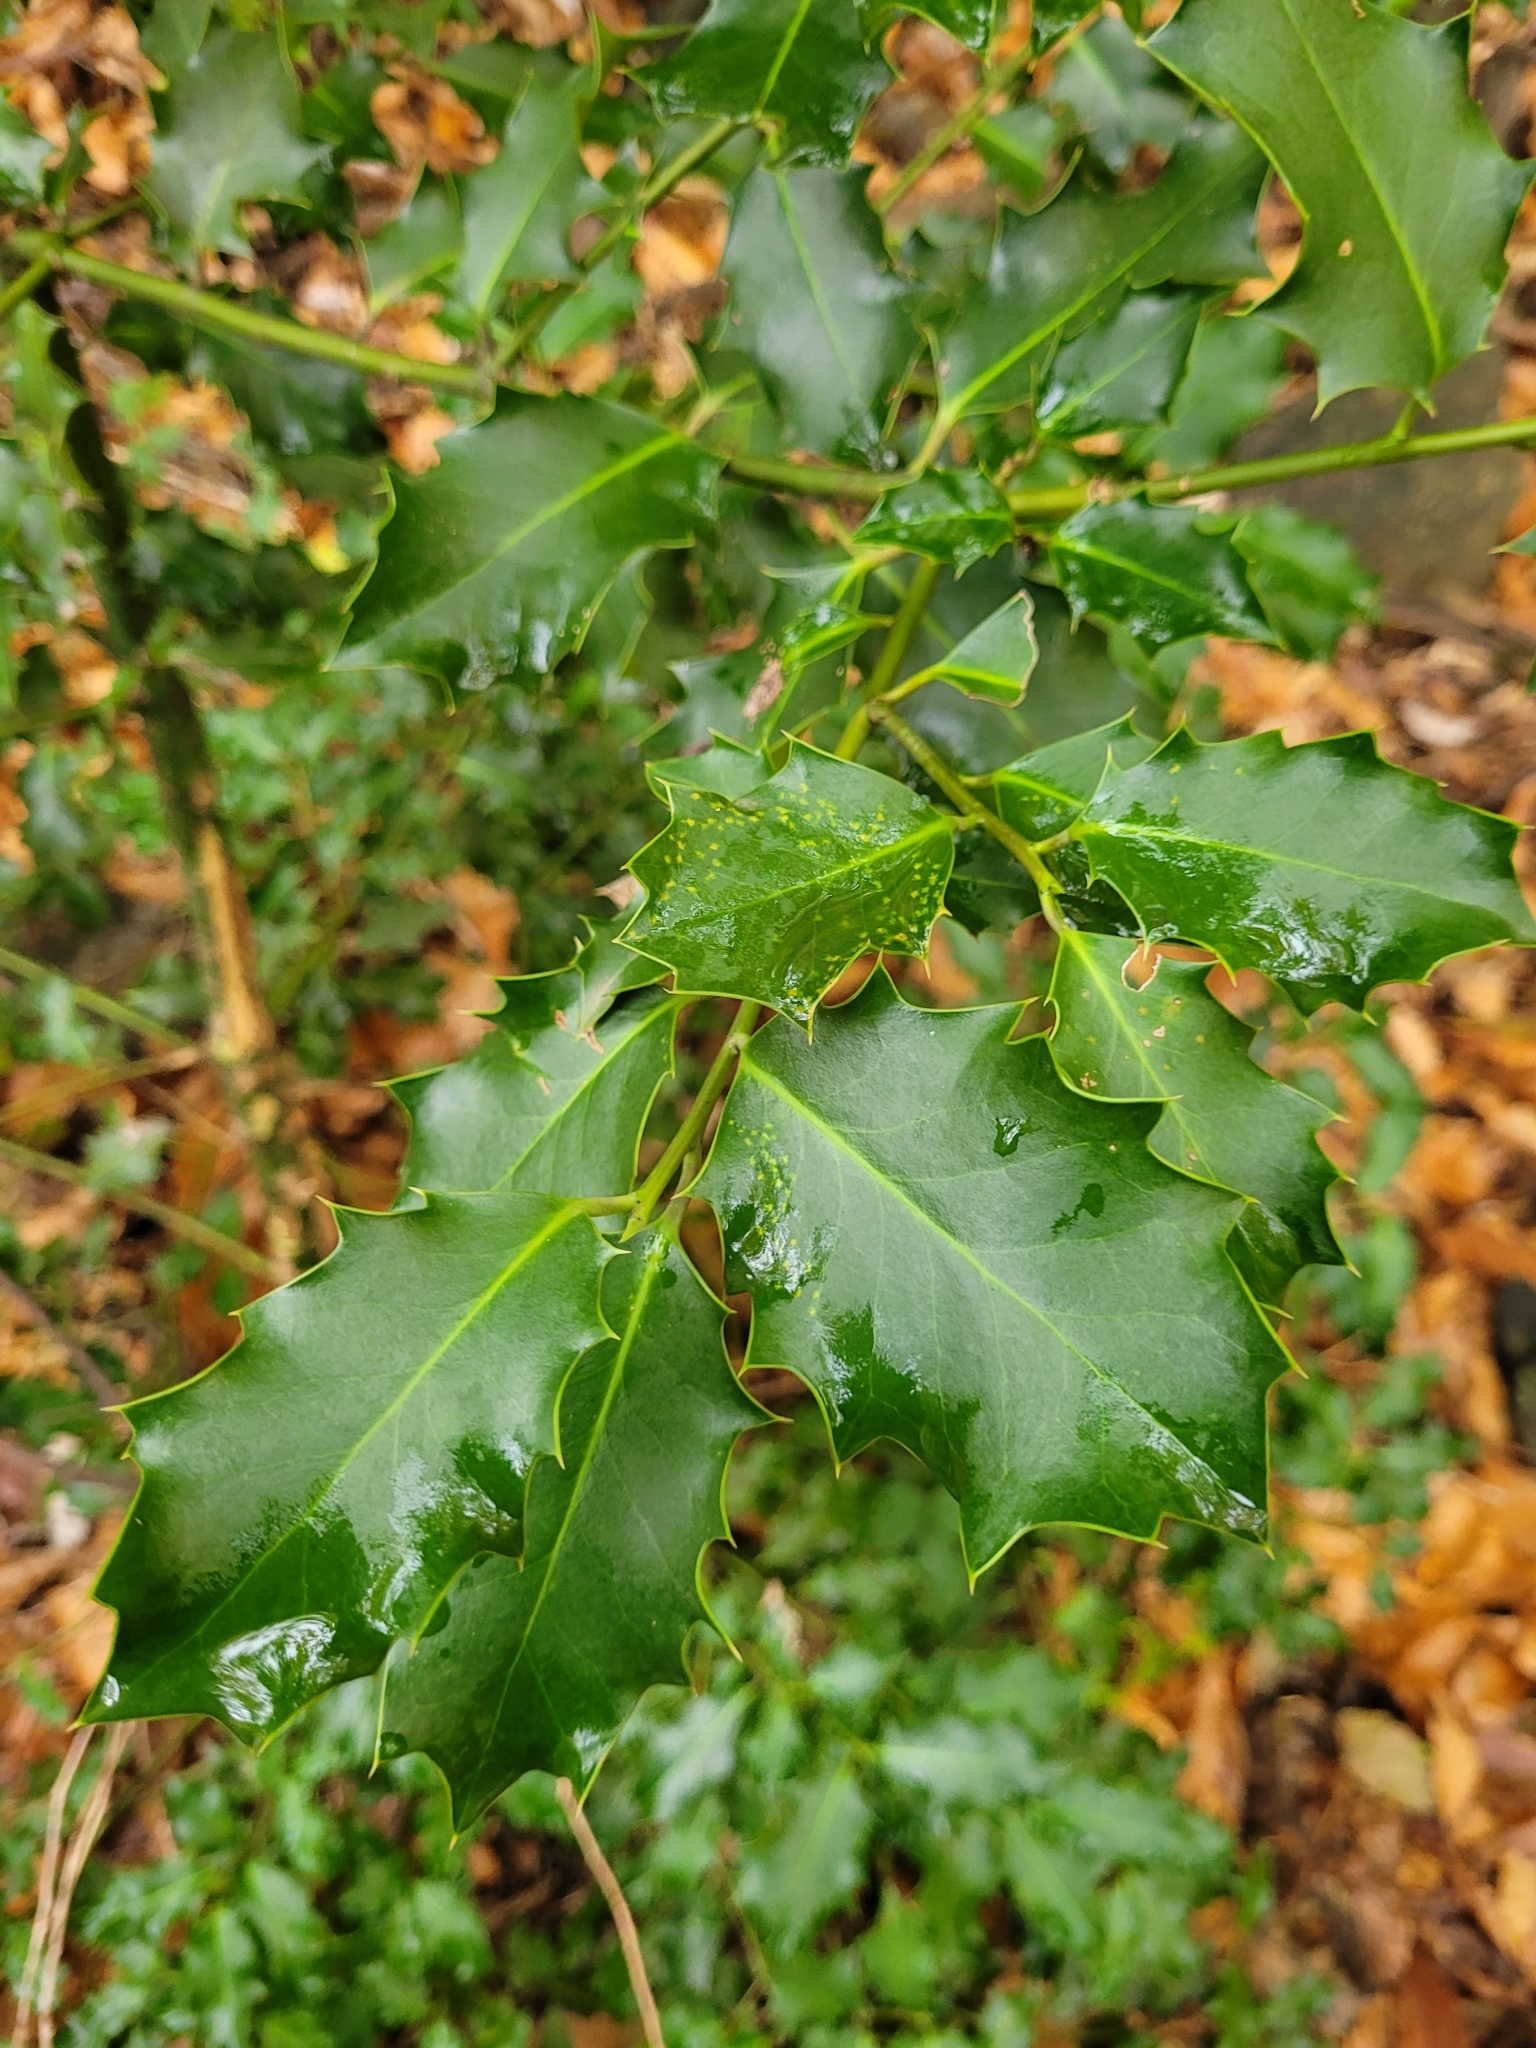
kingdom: Plantae
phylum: Tracheophyta
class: Magnoliopsida
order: Aquifoliales
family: Aquifoliaceae
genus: Ilex
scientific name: Ilex aquifolium
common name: English holly
